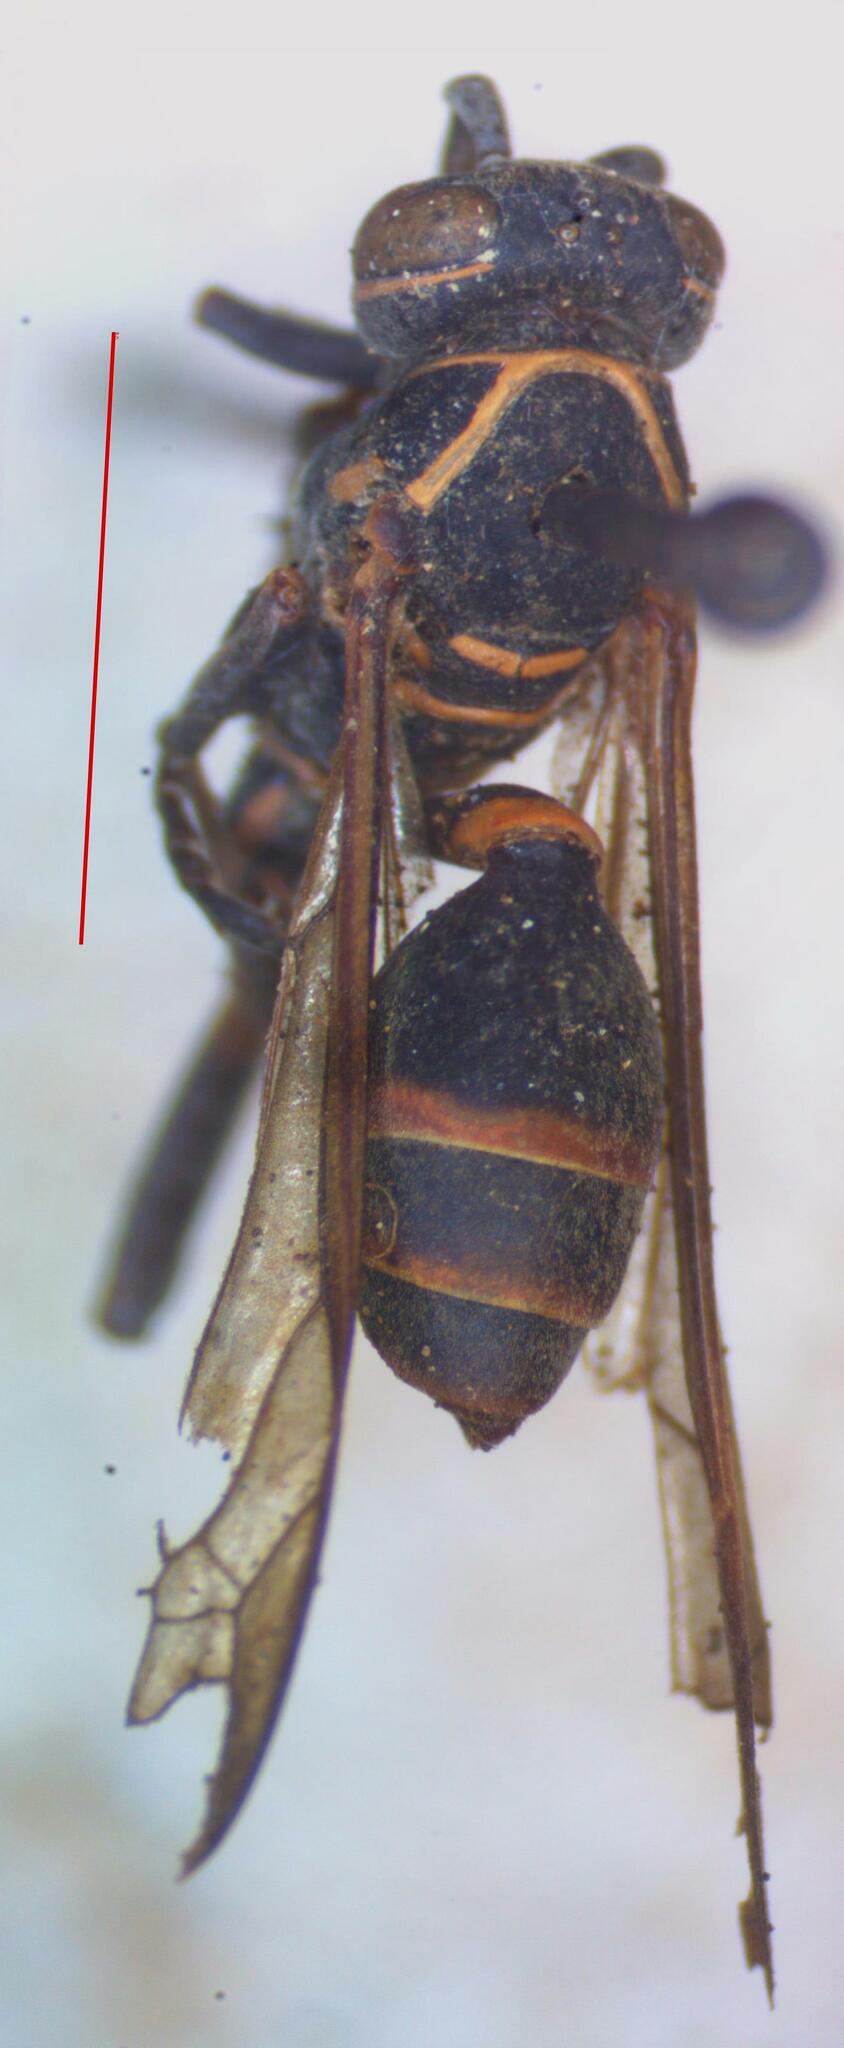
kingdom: Animalia
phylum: Arthropoda
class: Insecta
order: Hymenoptera
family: Vespidae
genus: Mischocyttarus
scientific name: Mischocyttarus pallidipectus
